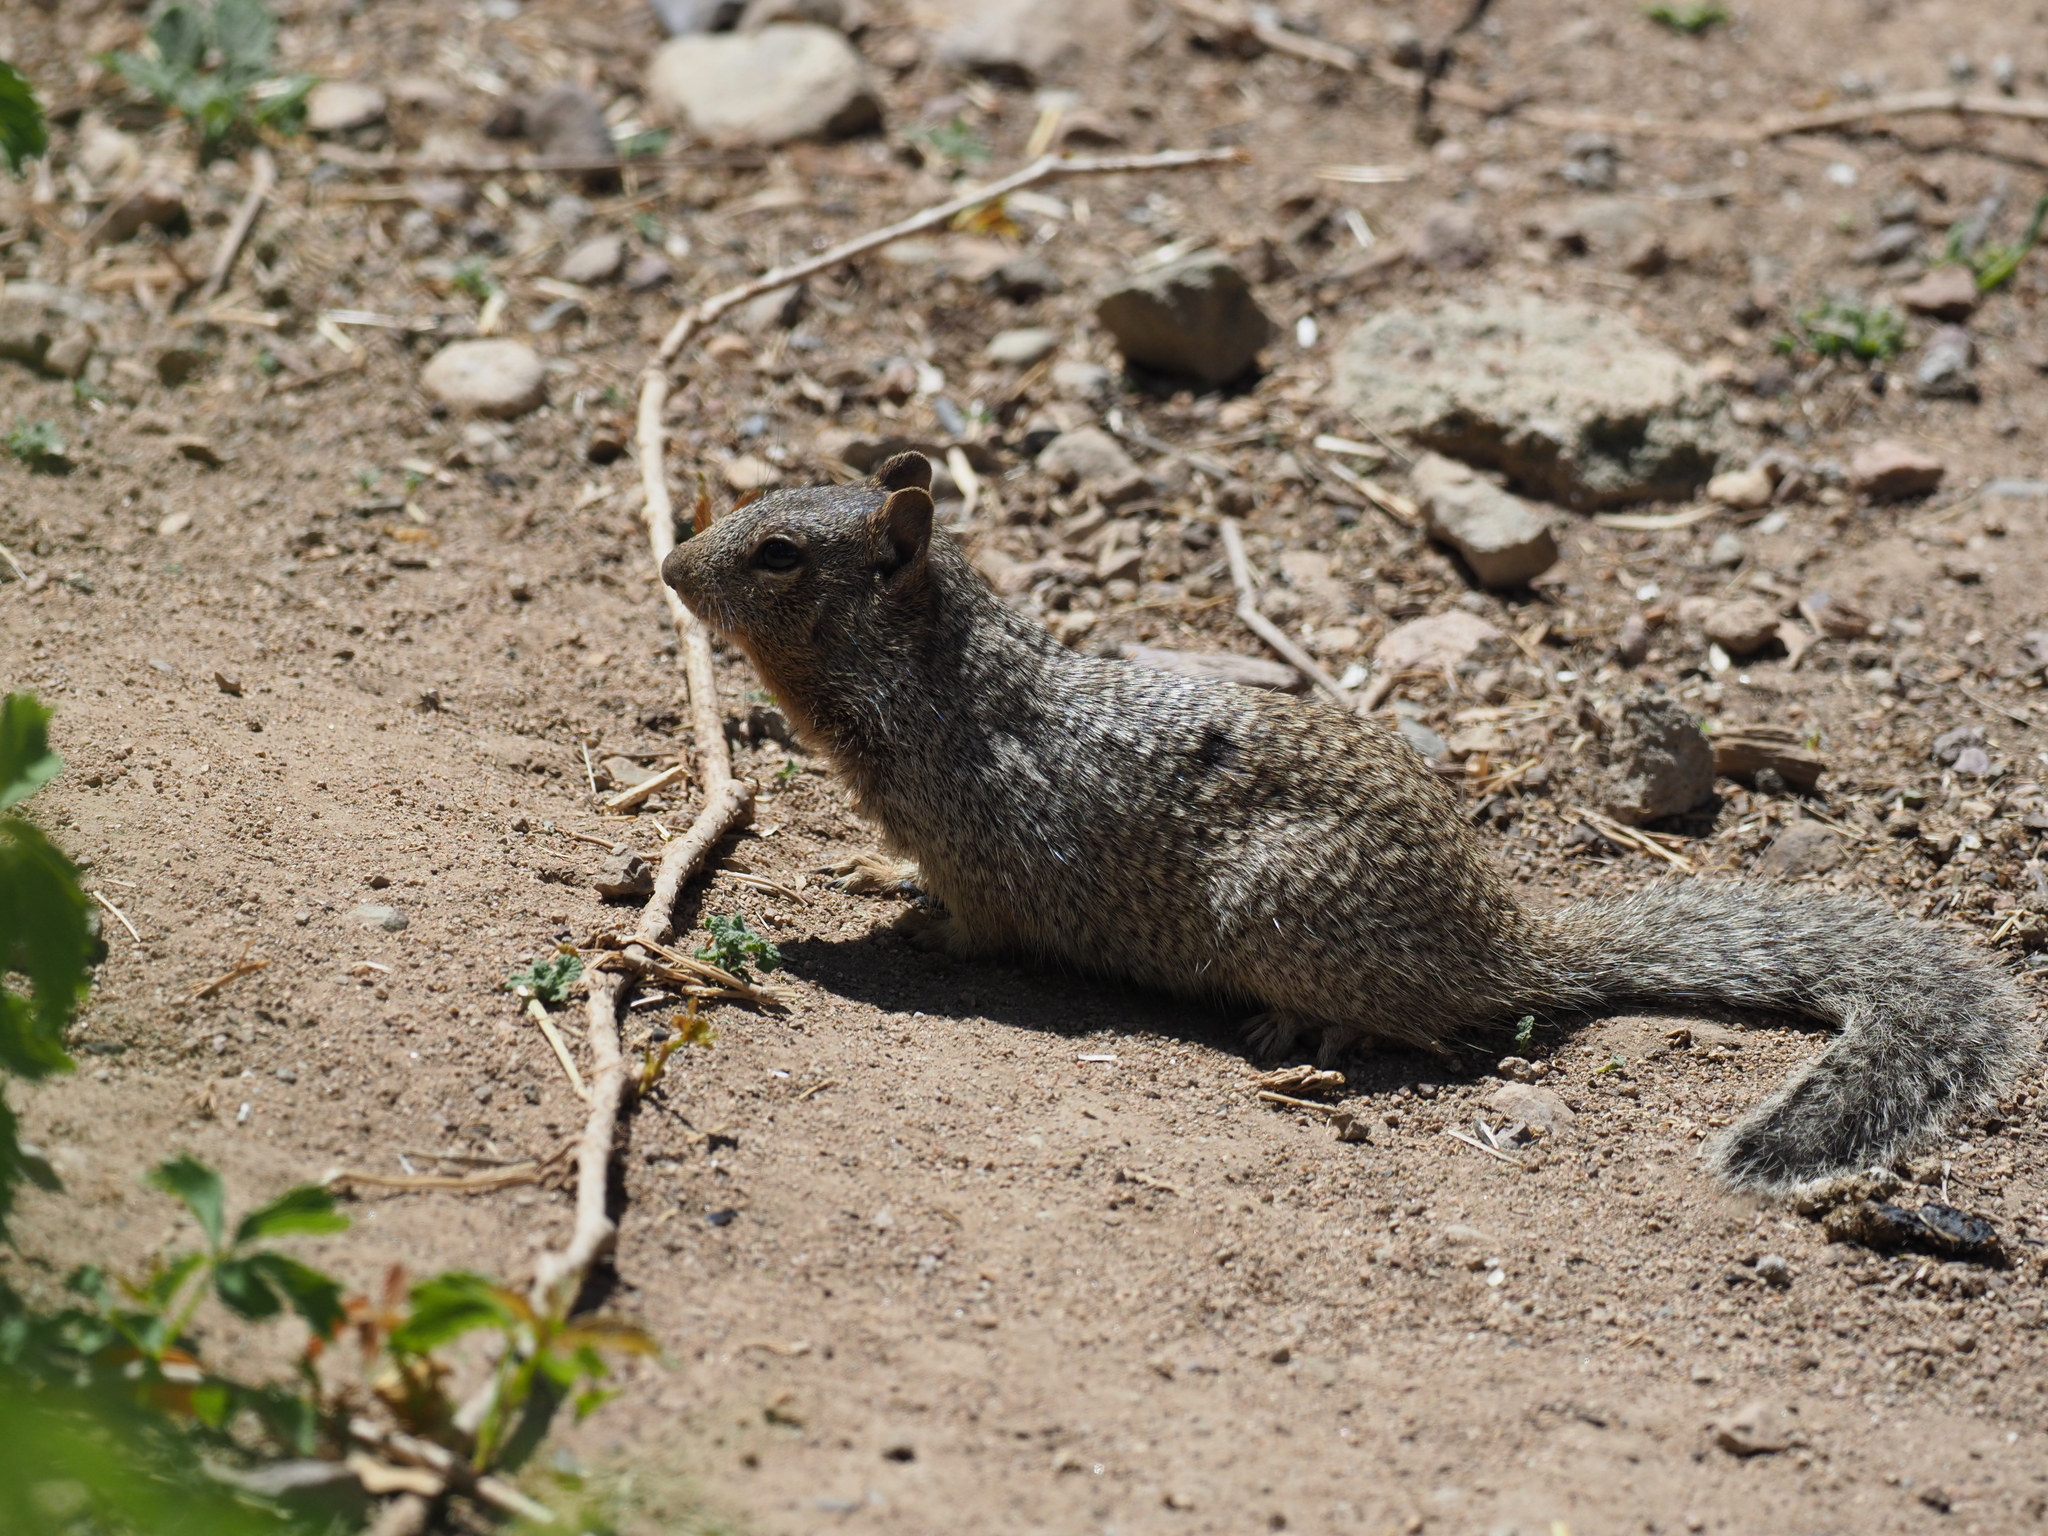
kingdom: Animalia
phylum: Chordata
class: Mammalia
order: Rodentia
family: Sciuridae
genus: Otospermophilus
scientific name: Otospermophilus variegatus
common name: Rock squirrel
